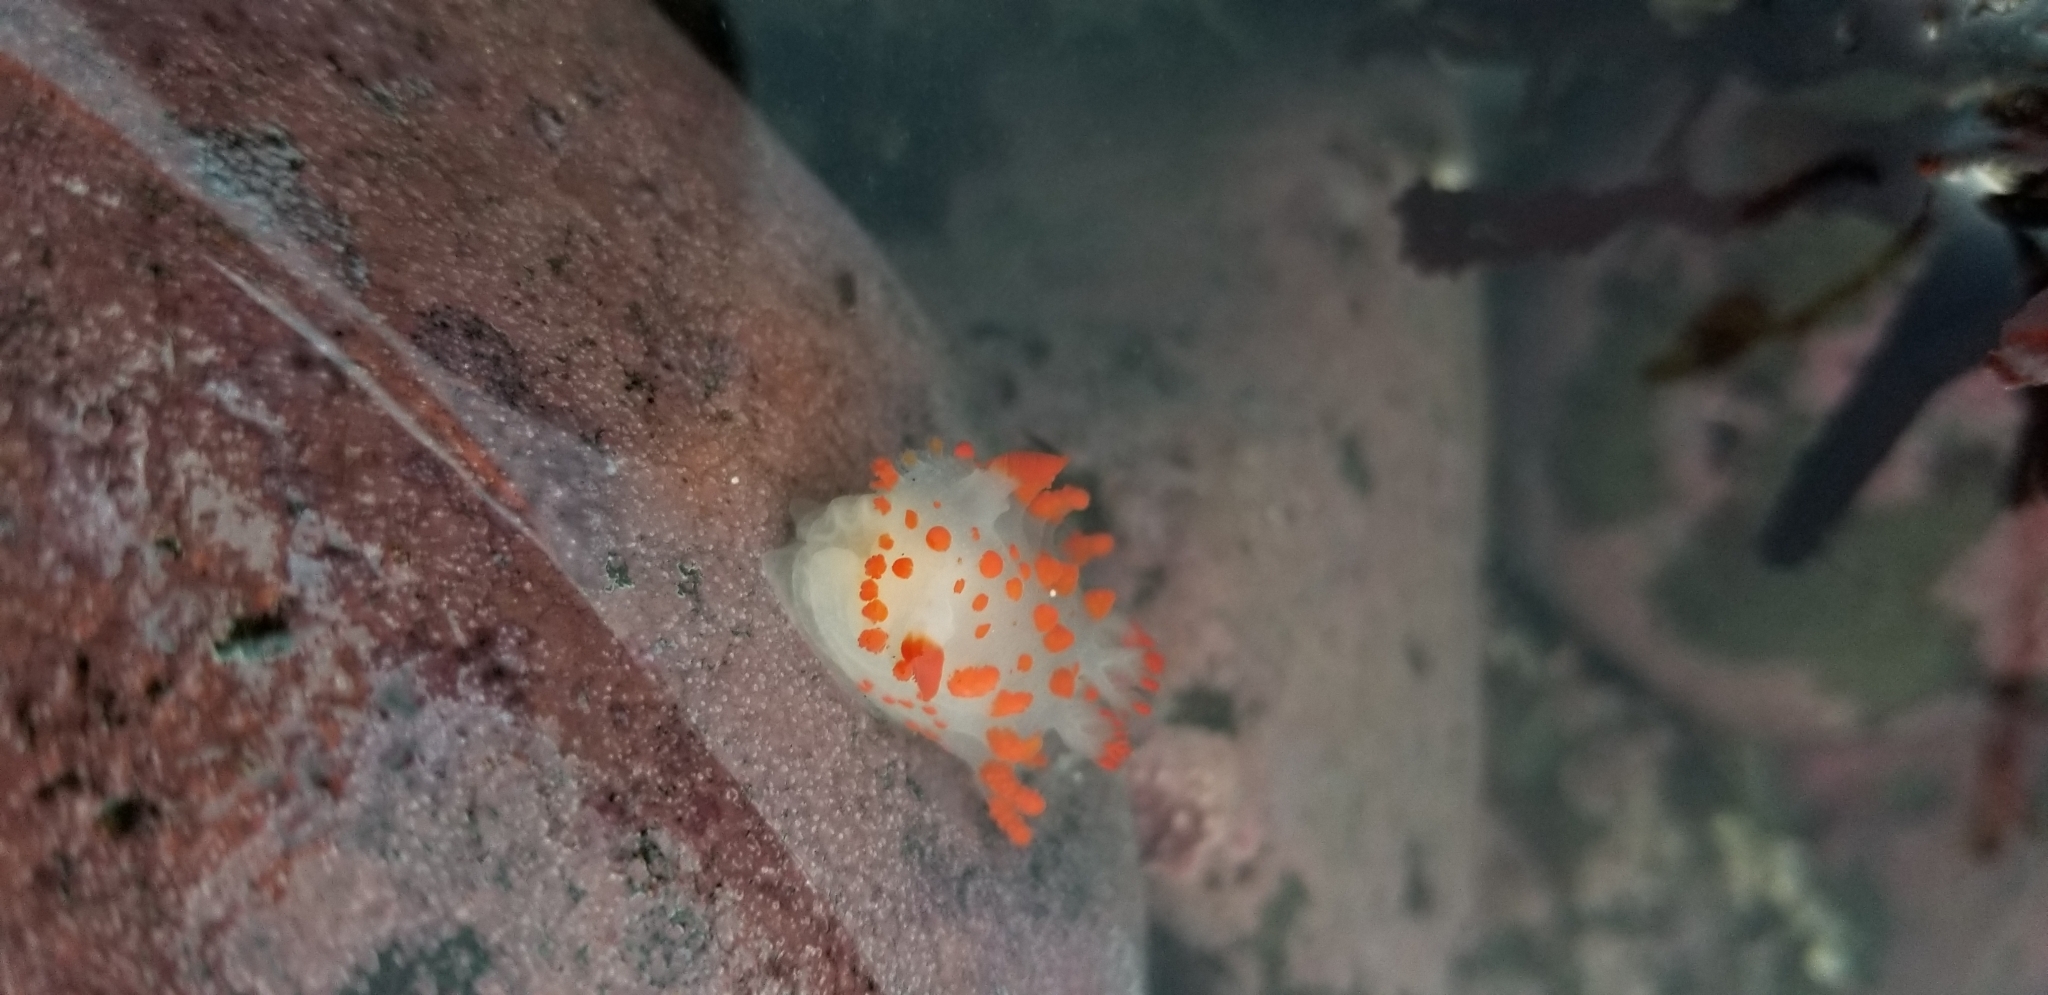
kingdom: Animalia
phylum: Mollusca
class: Gastropoda
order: Nudibranchia
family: Polyceridae
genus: Triopha
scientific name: Triopha catalinae
